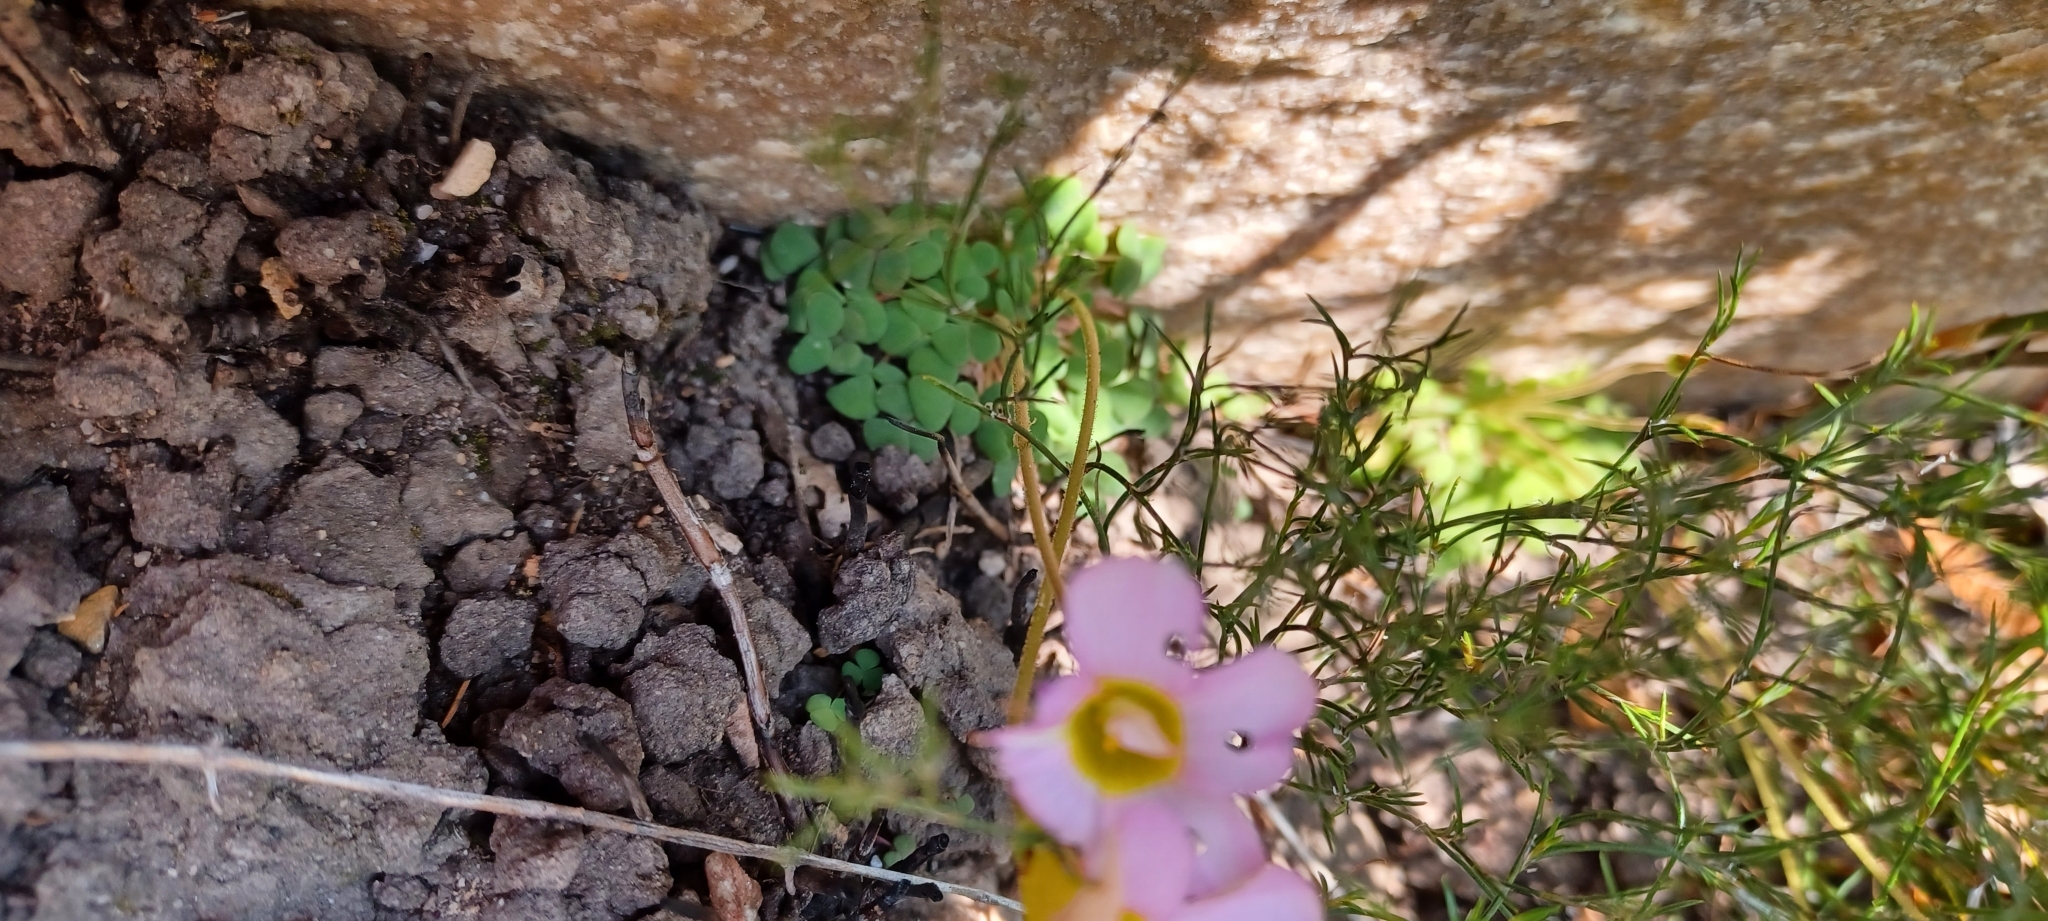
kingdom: Plantae
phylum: Tracheophyta
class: Magnoliopsida
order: Oxalidales
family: Oxalidaceae
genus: Oxalis
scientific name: Oxalis fergusoniae
